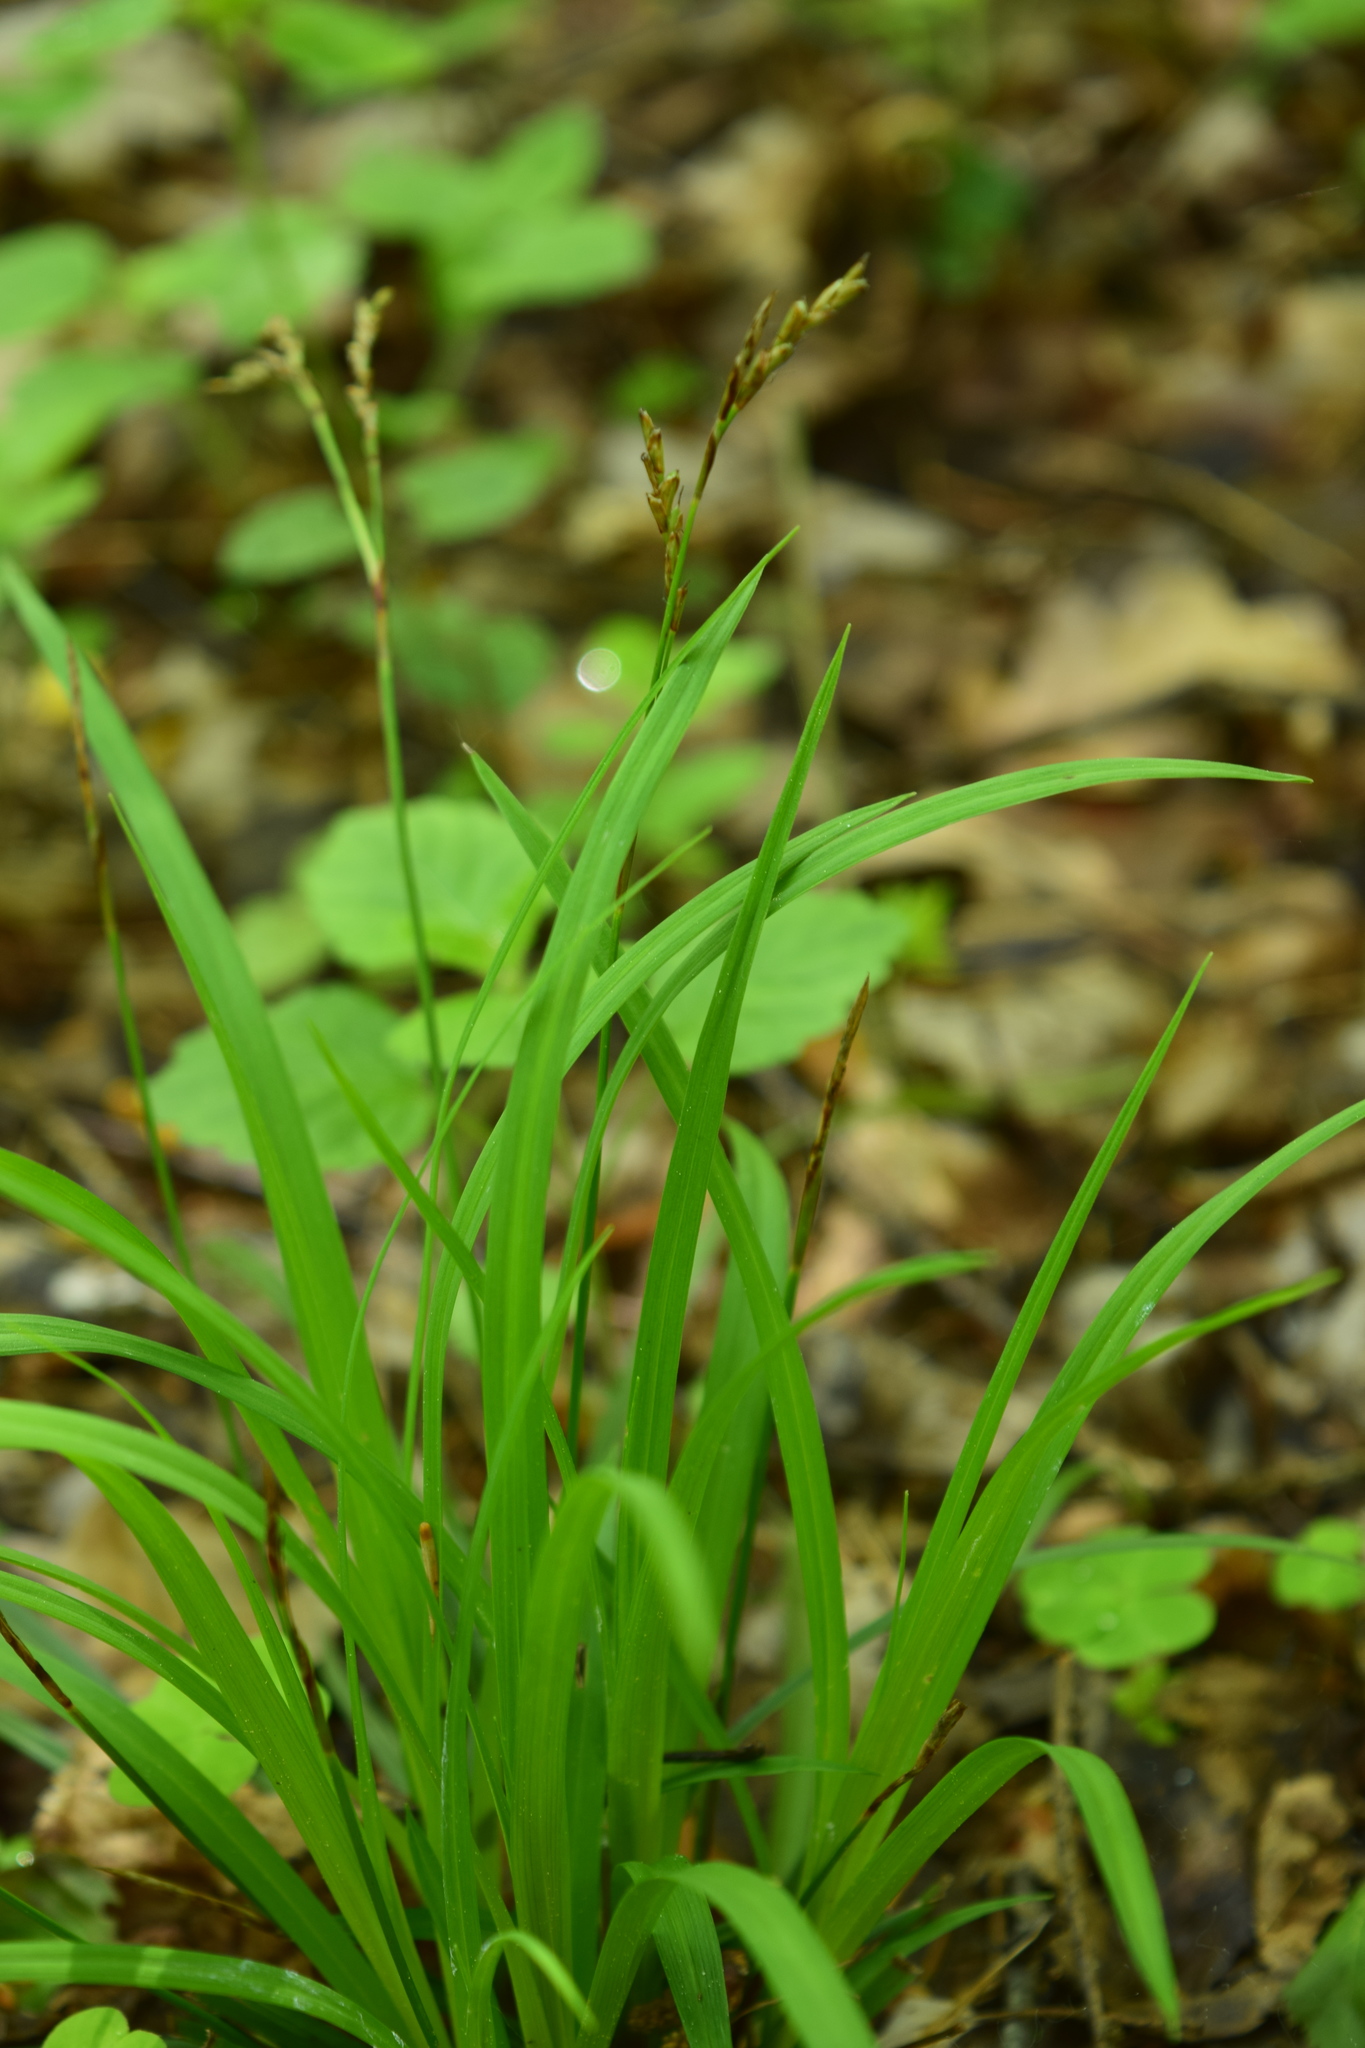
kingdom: Plantae
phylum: Tracheophyta
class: Liliopsida
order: Poales
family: Cyperaceae
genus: Carex
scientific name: Carex digitata
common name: Fingered sedge
